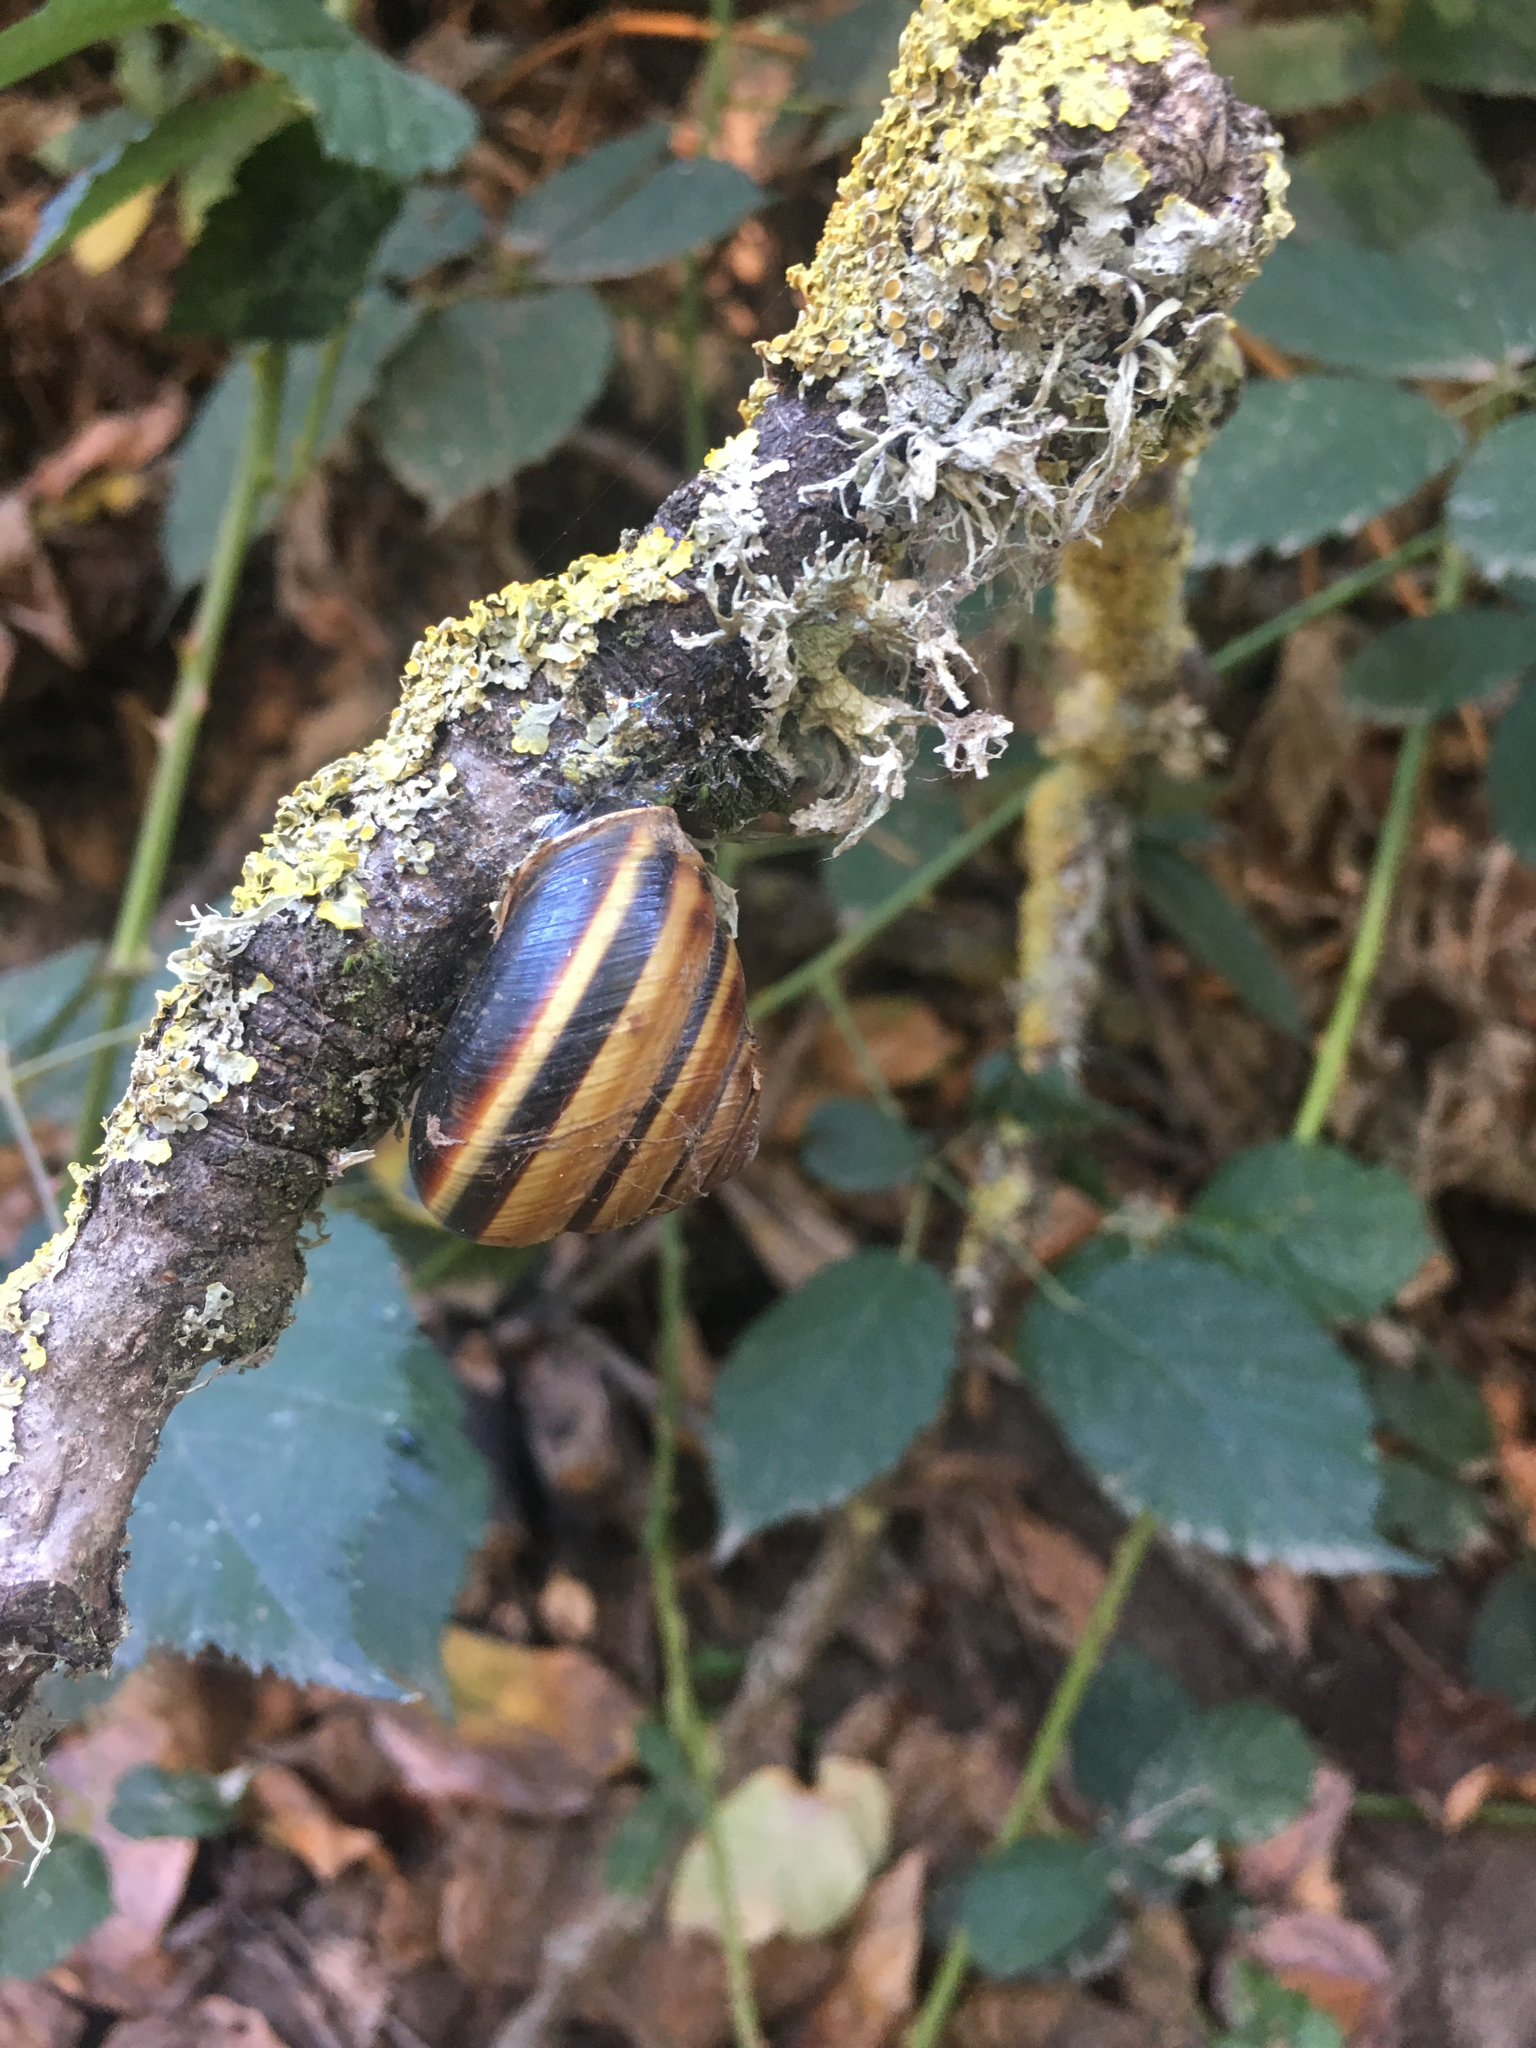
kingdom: Animalia
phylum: Mollusca
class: Gastropoda
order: Stylommatophora
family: Xanthonychidae
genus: Monadenia
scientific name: Monadenia fidelis
